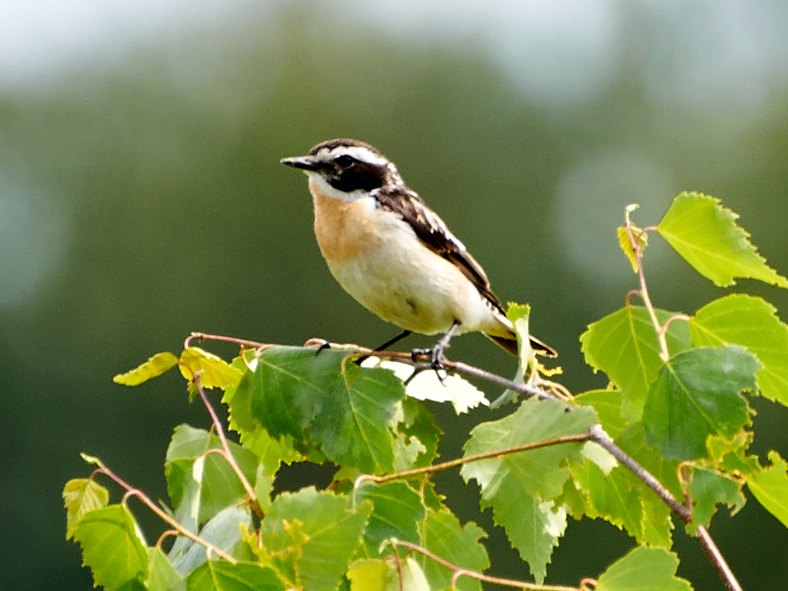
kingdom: Animalia
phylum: Chordata
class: Aves
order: Passeriformes
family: Muscicapidae
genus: Saxicola
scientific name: Saxicola rubetra
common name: Whinchat
